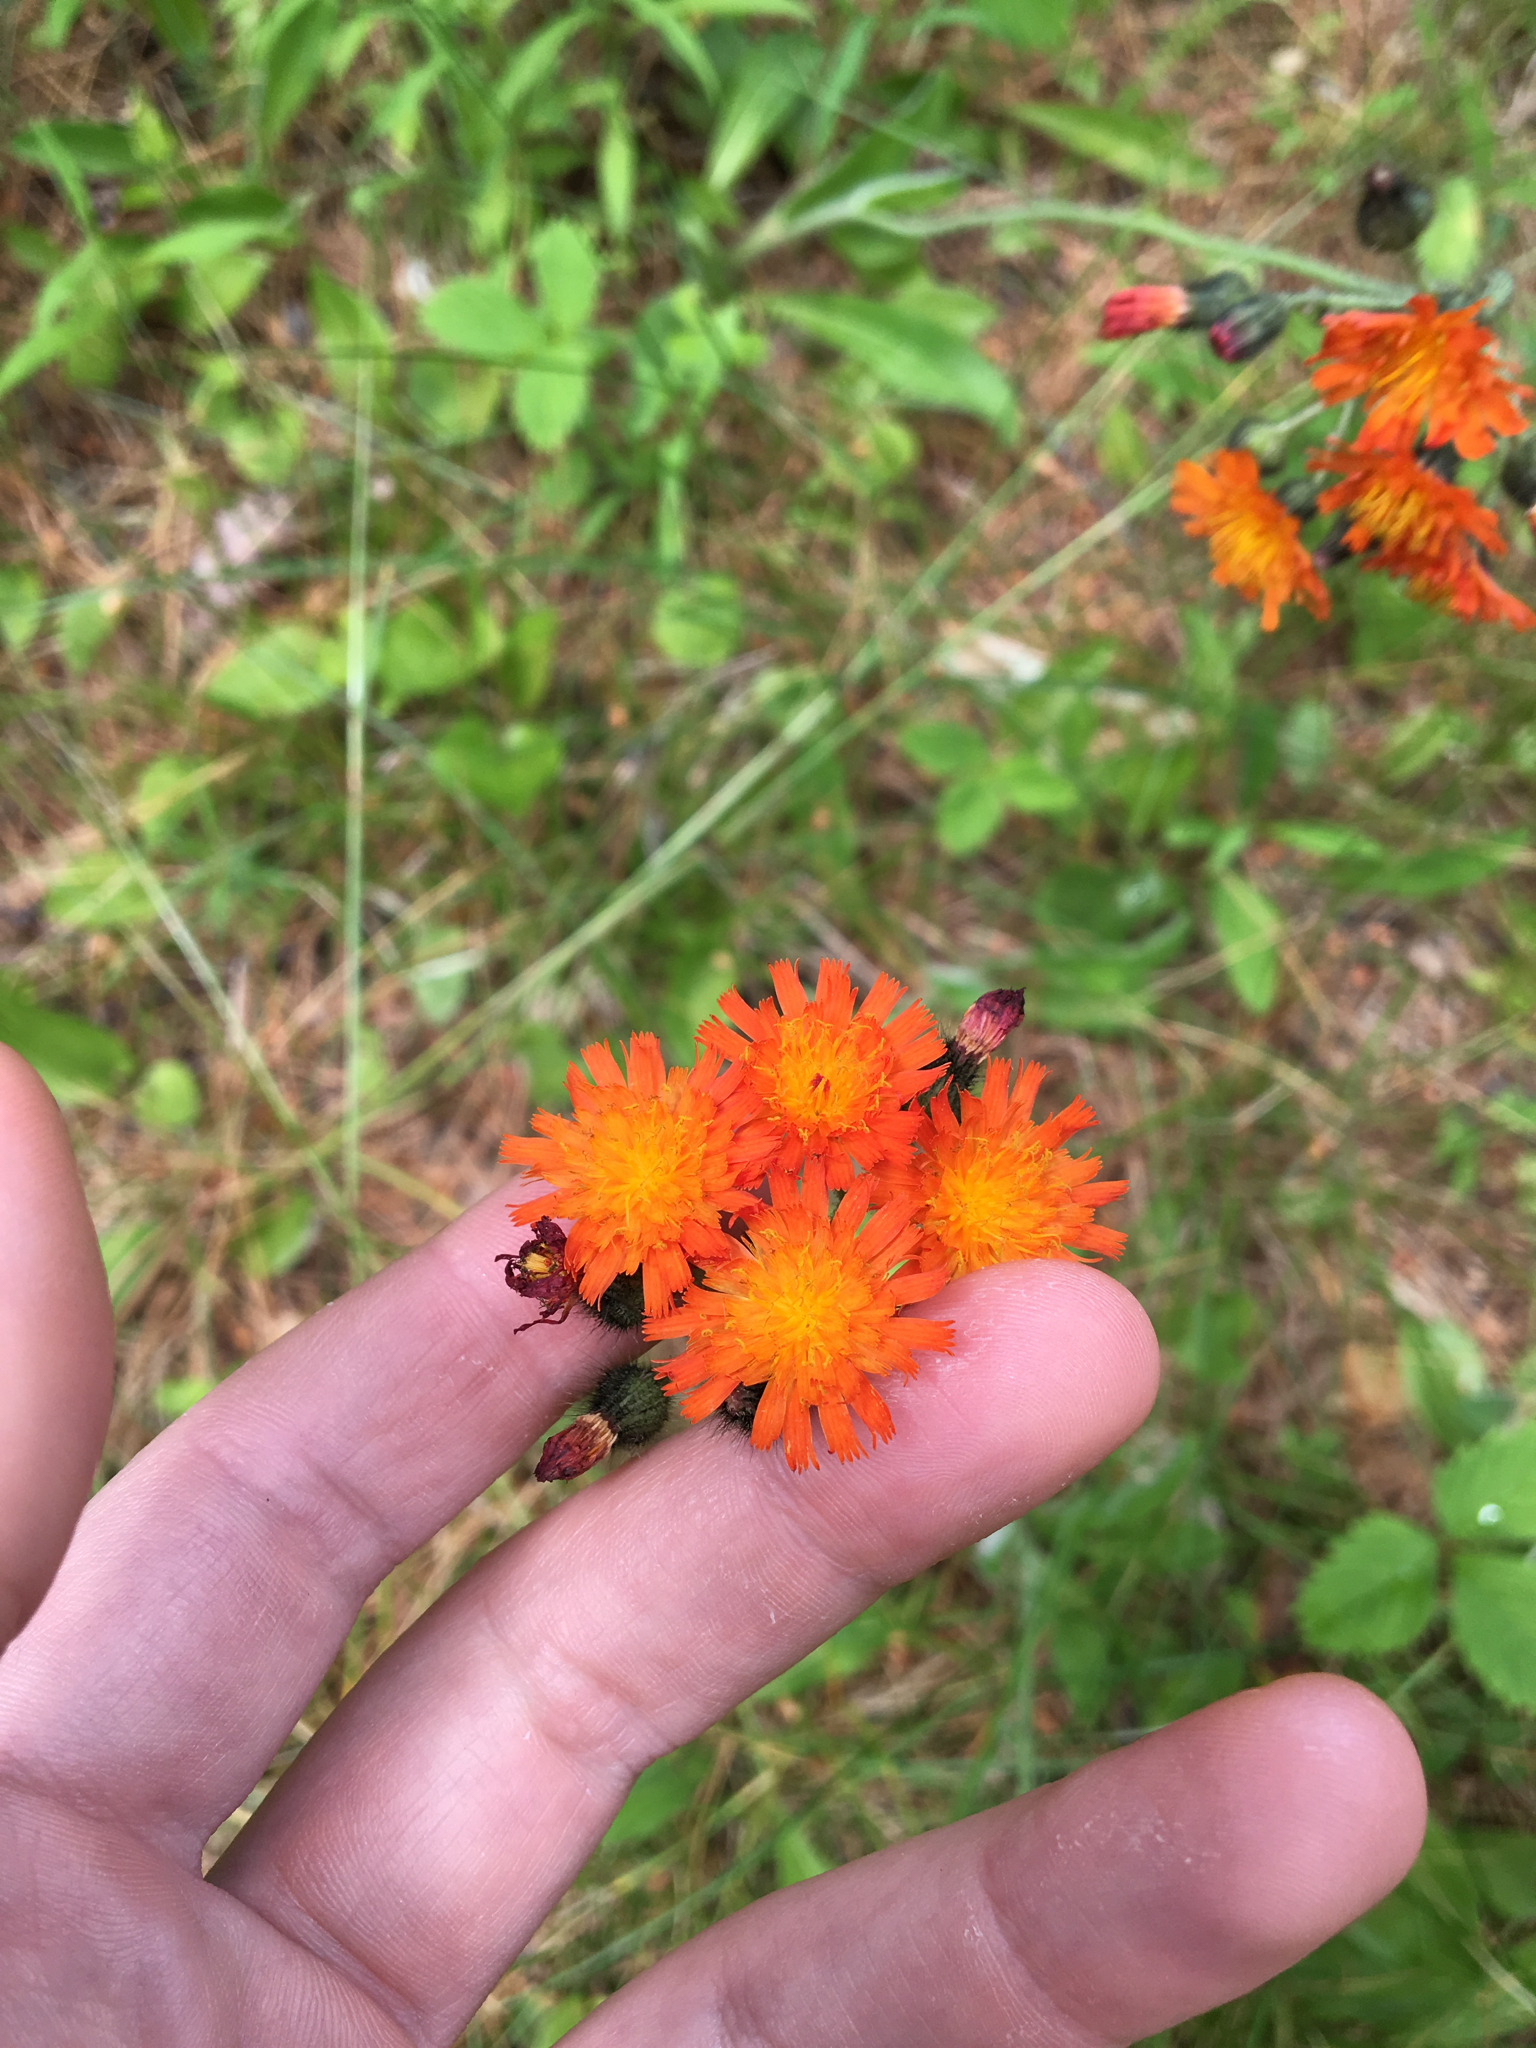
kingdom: Plantae
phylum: Tracheophyta
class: Magnoliopsida
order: Asterales
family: Asteraceae
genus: Pilosella
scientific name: Pilosella aurantiaca
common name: Fox-and-cubs
